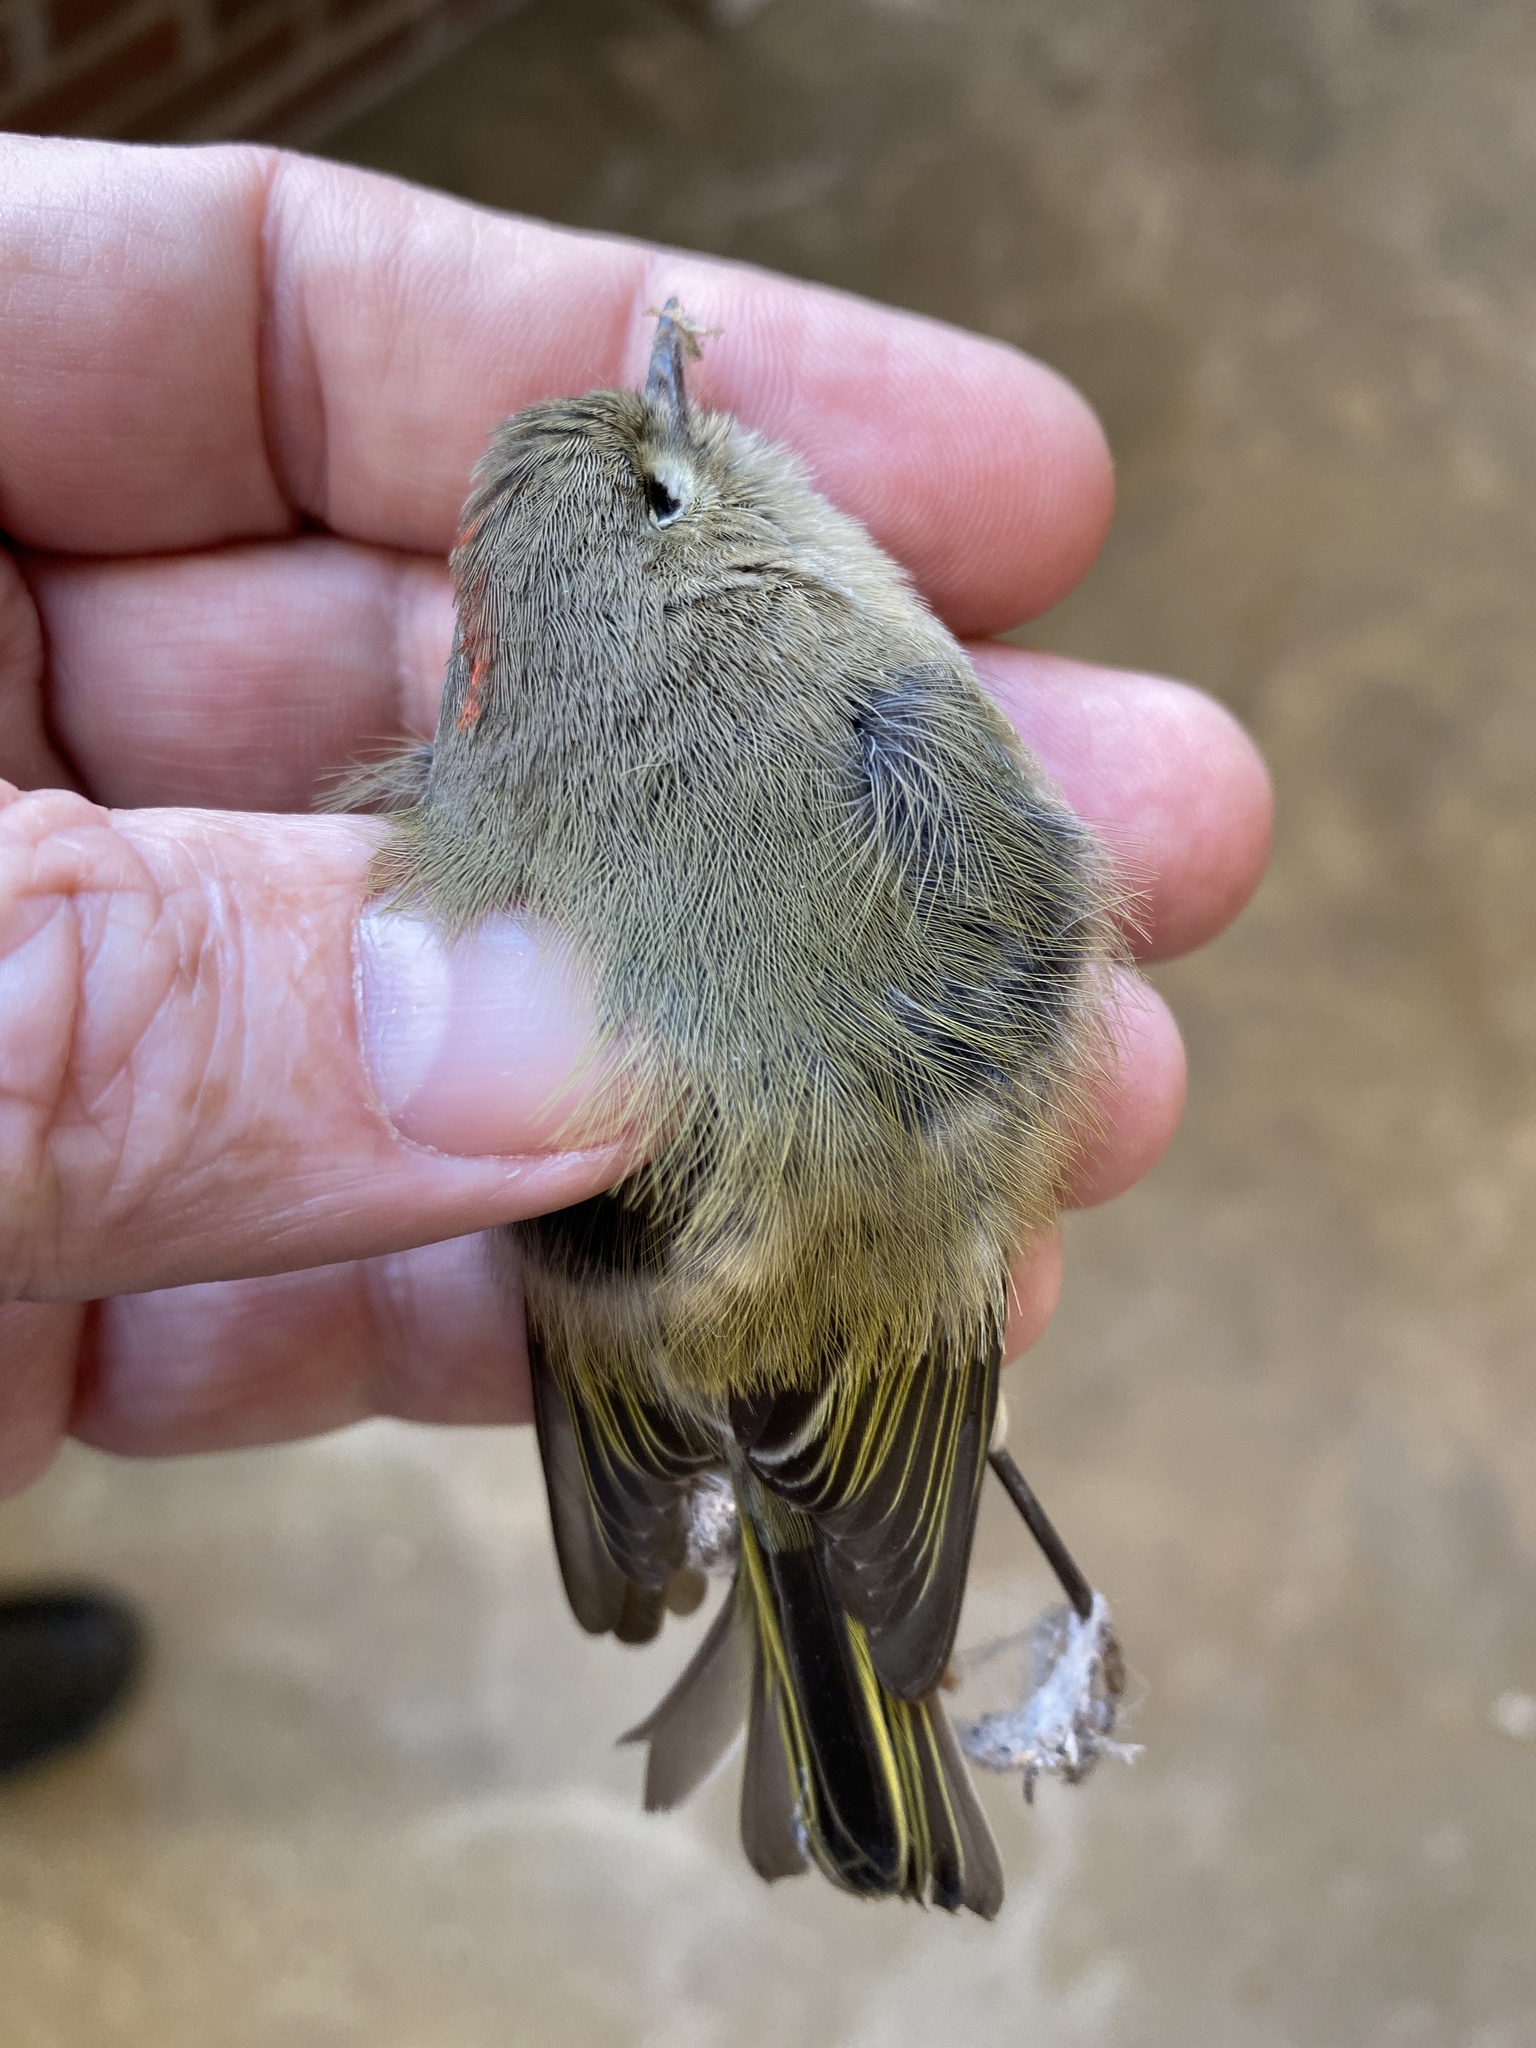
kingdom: Animalia
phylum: Chordata
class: Aves
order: Passeriformes
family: Regulidae
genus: Regulus
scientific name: Regulus calendula
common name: Ruby-crowned kinglet
